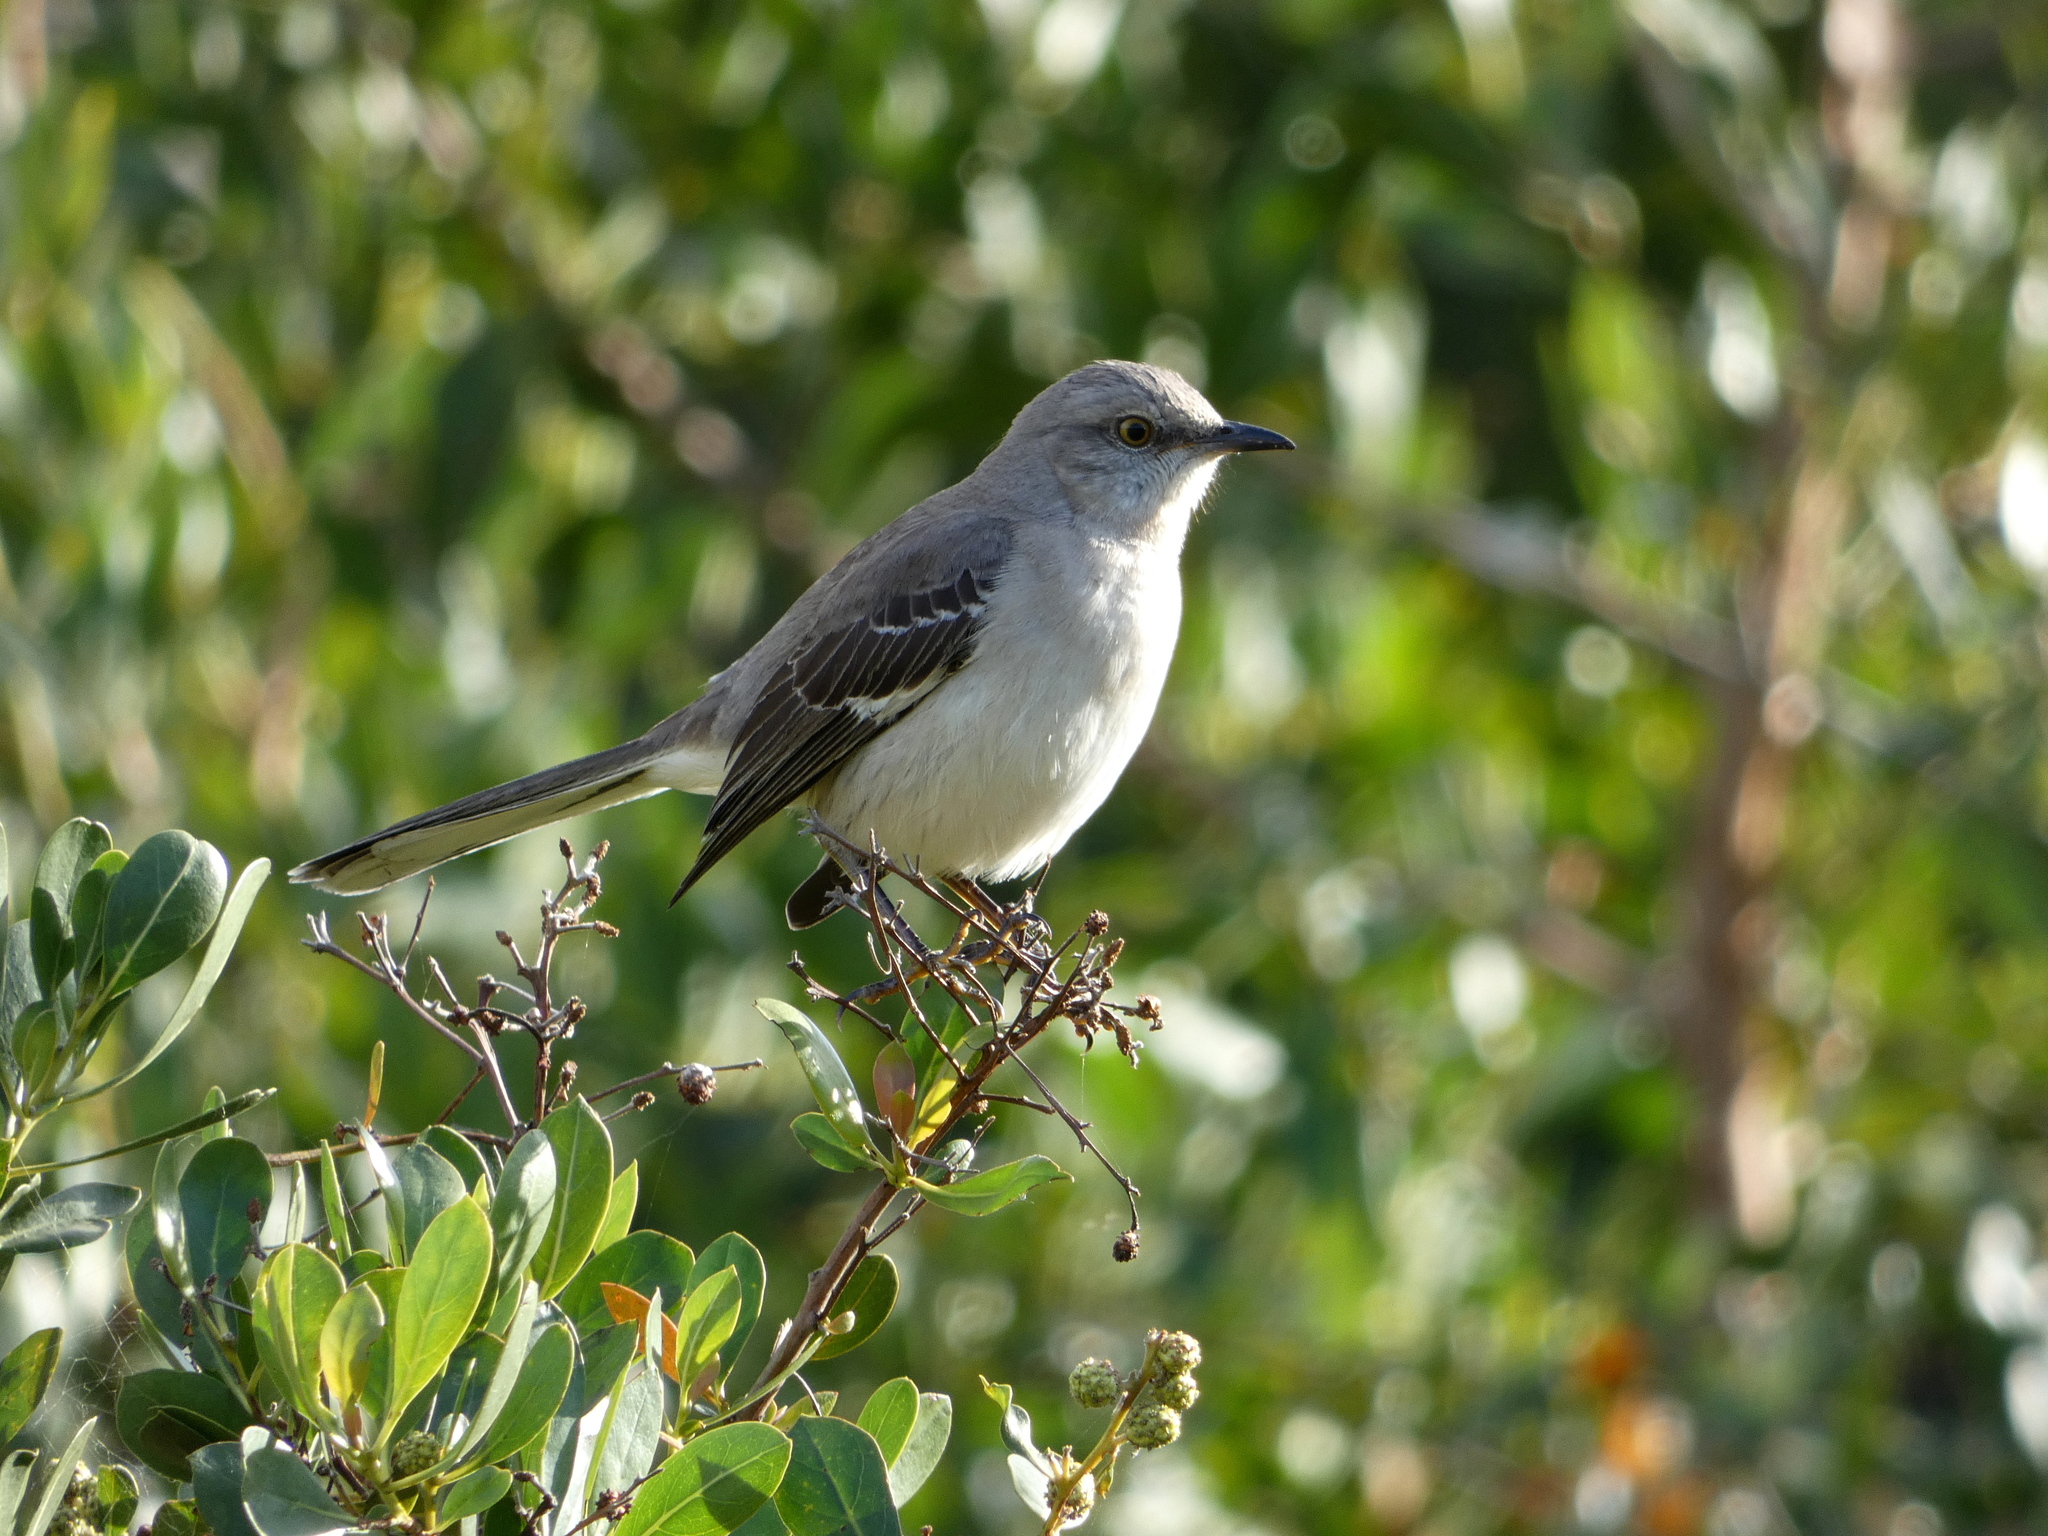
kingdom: Animalia
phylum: Chordata
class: Aves
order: Passeriformes
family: Mimidae
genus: Mimus
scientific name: Mimus polyglottos
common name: Northern mockingbird
